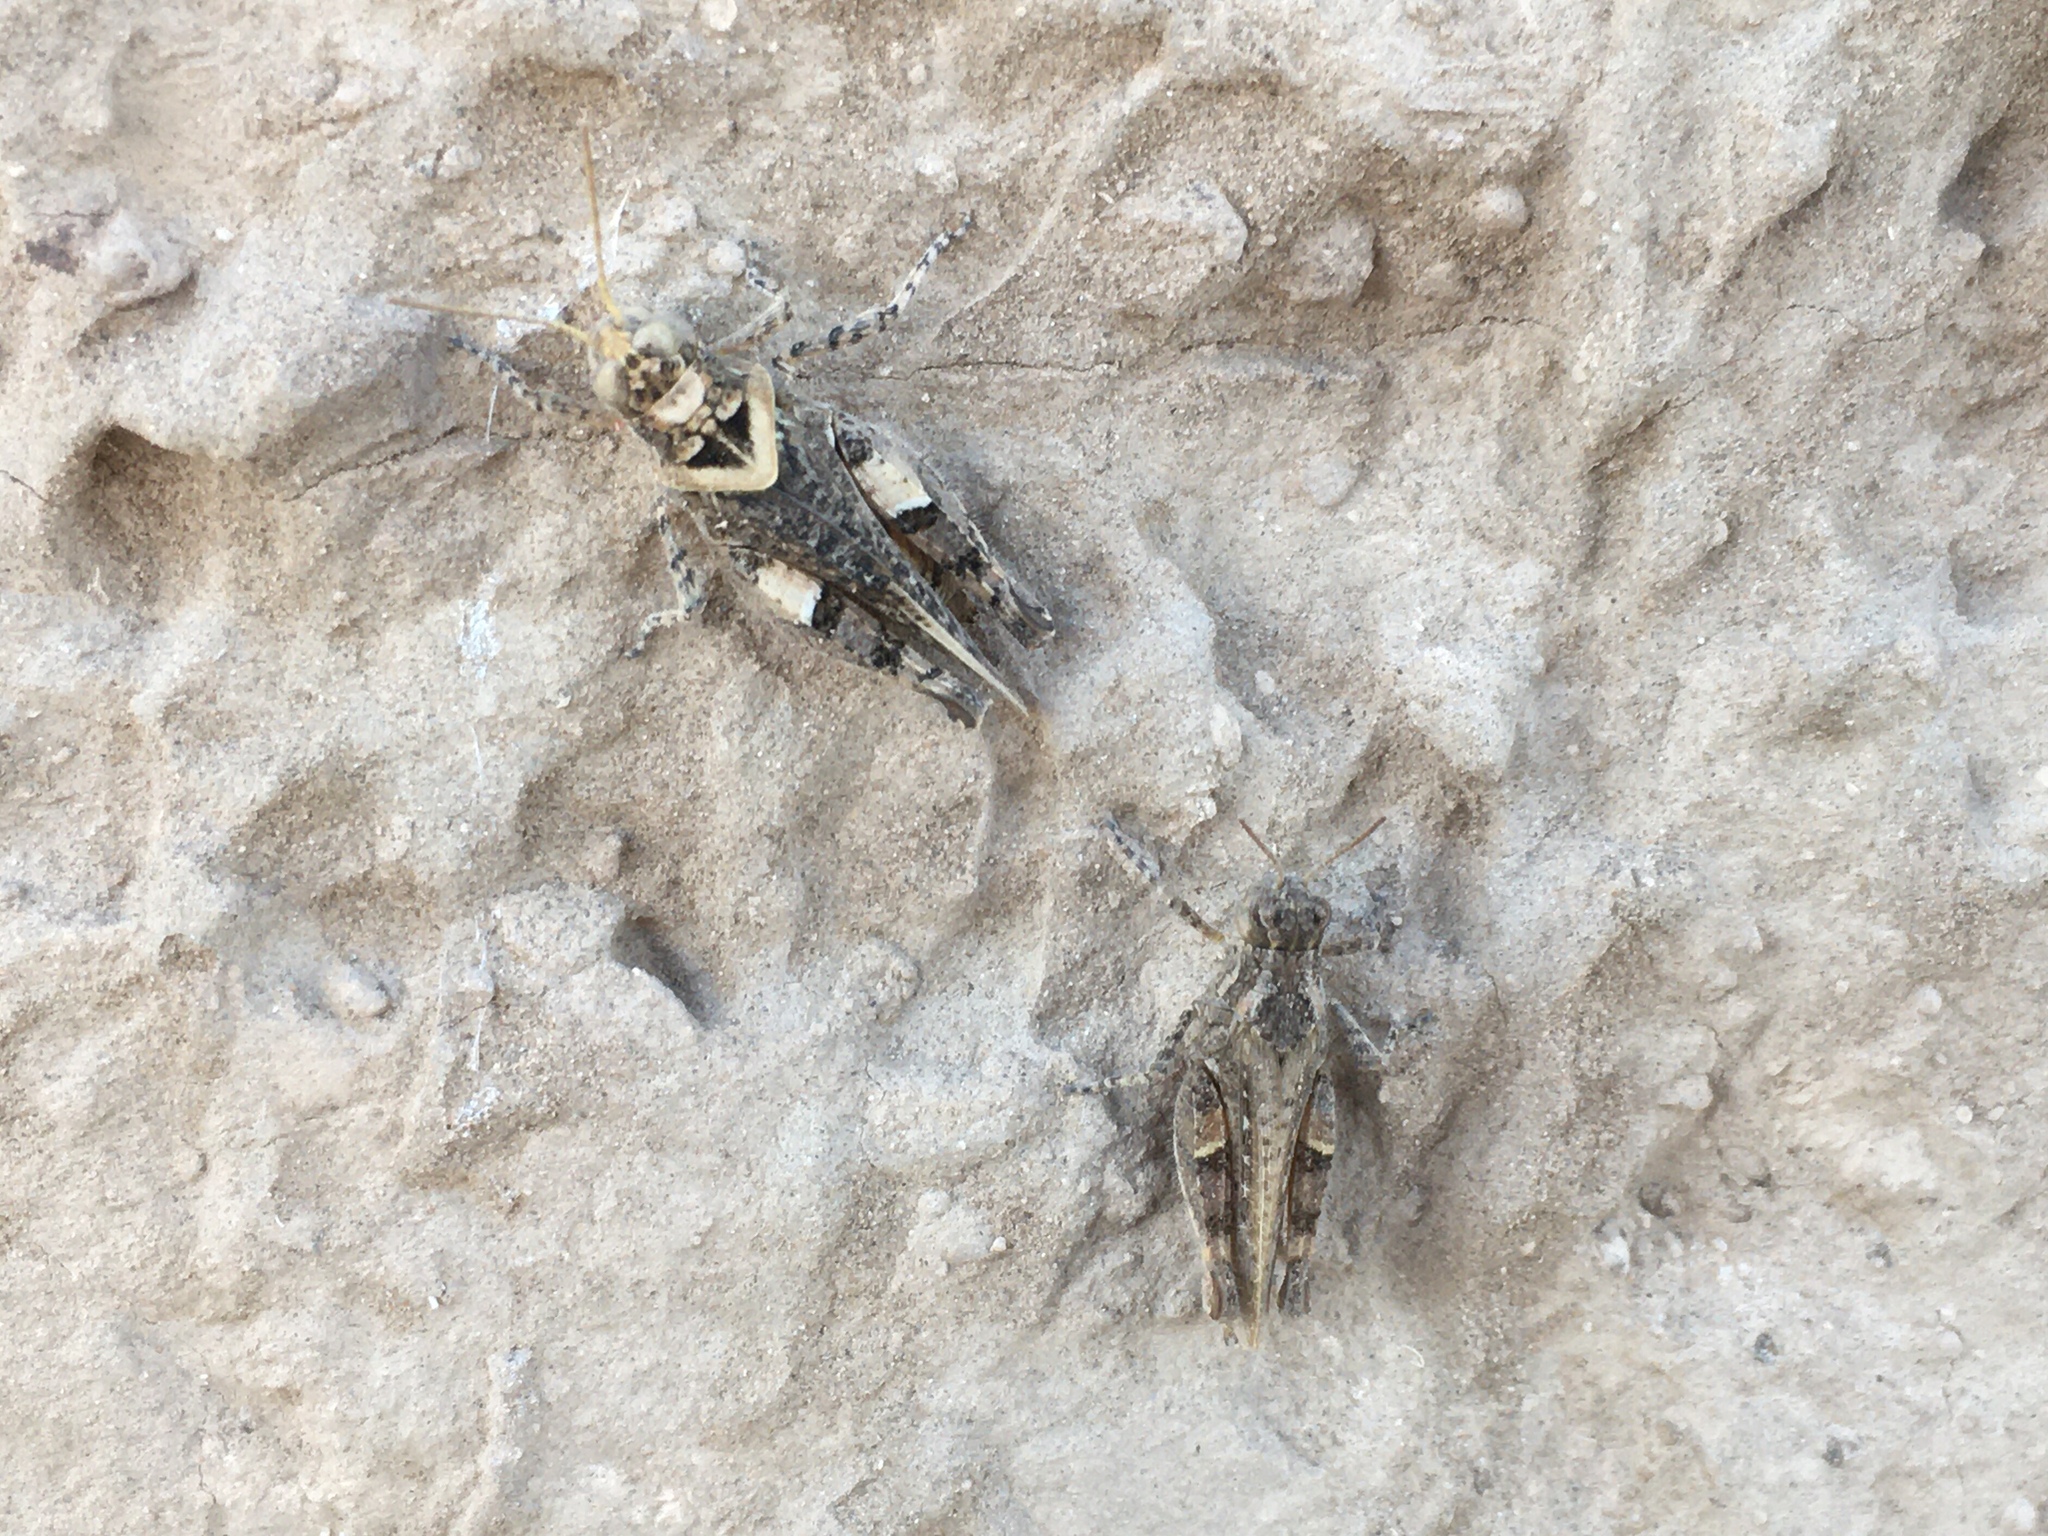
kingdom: Animalia
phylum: Arthropoda
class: Insecta
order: Orthoptera
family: Acrididae
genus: Dichroplus
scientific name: Dichroplus conspersus
